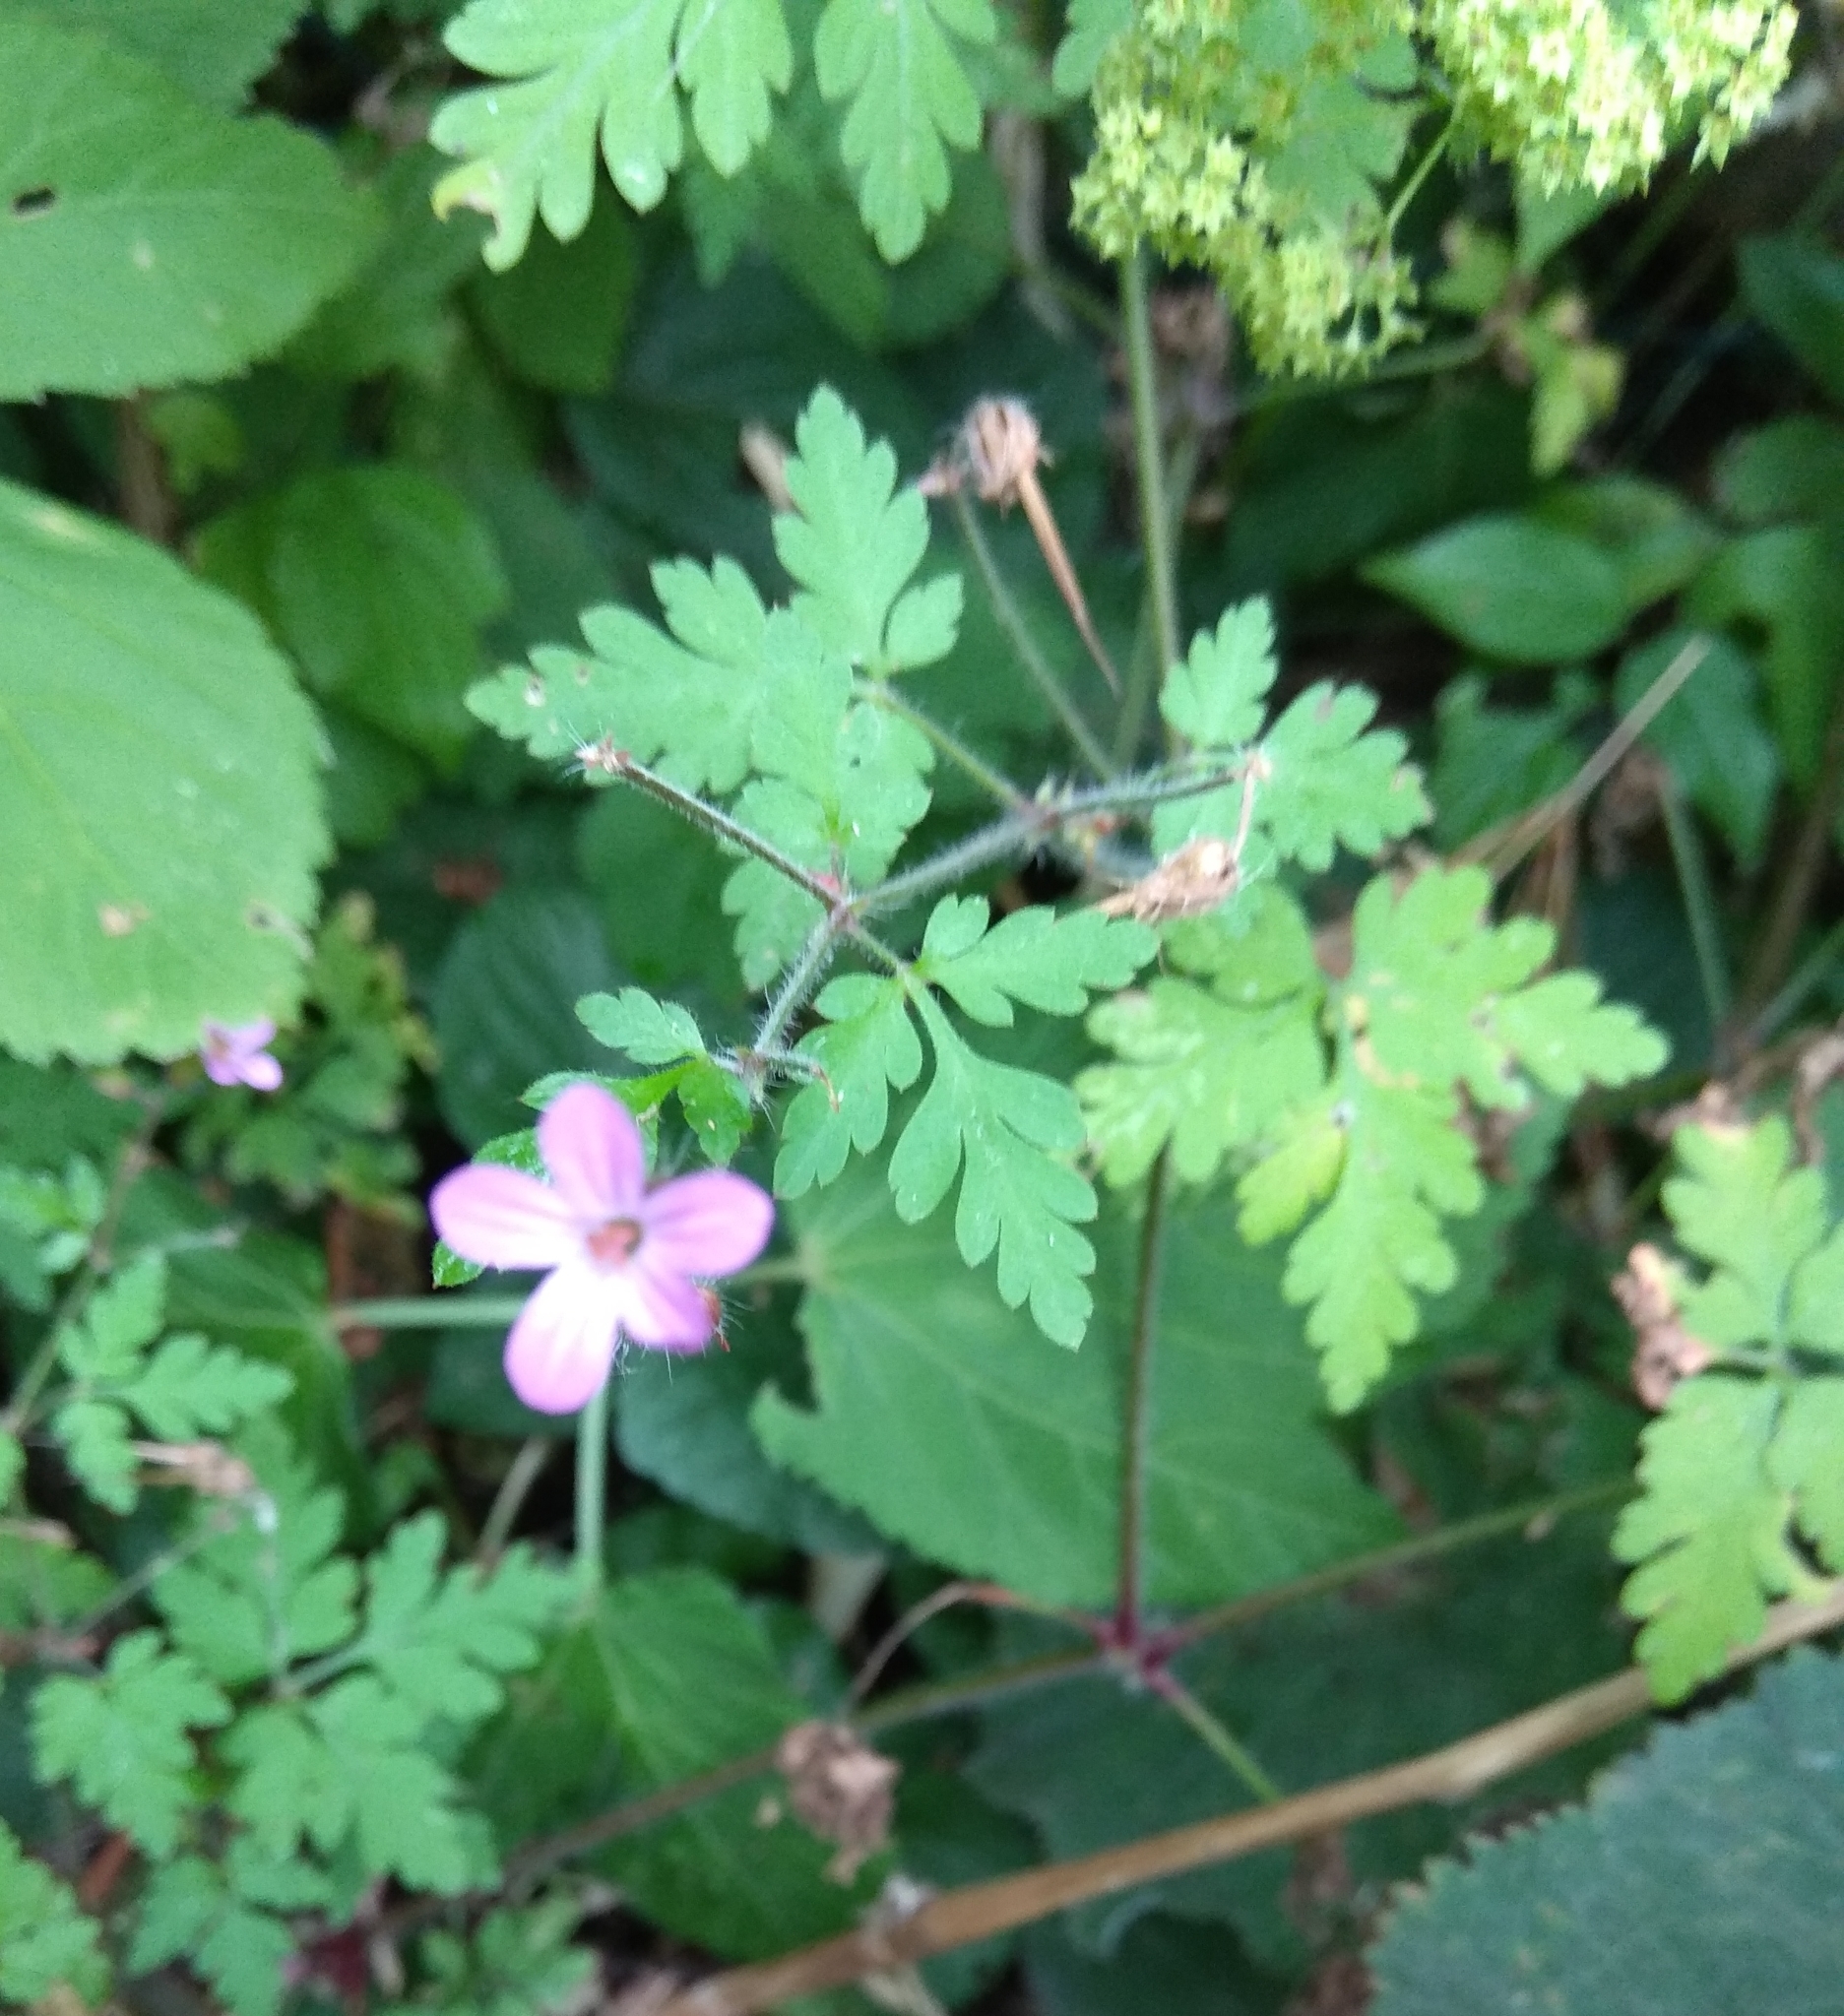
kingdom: Plantae
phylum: Tracheophyta
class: Magnoliopsida
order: Geraniales
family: Geraniaceae
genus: Geranium
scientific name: Geranium robertianum
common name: Herb-robert
